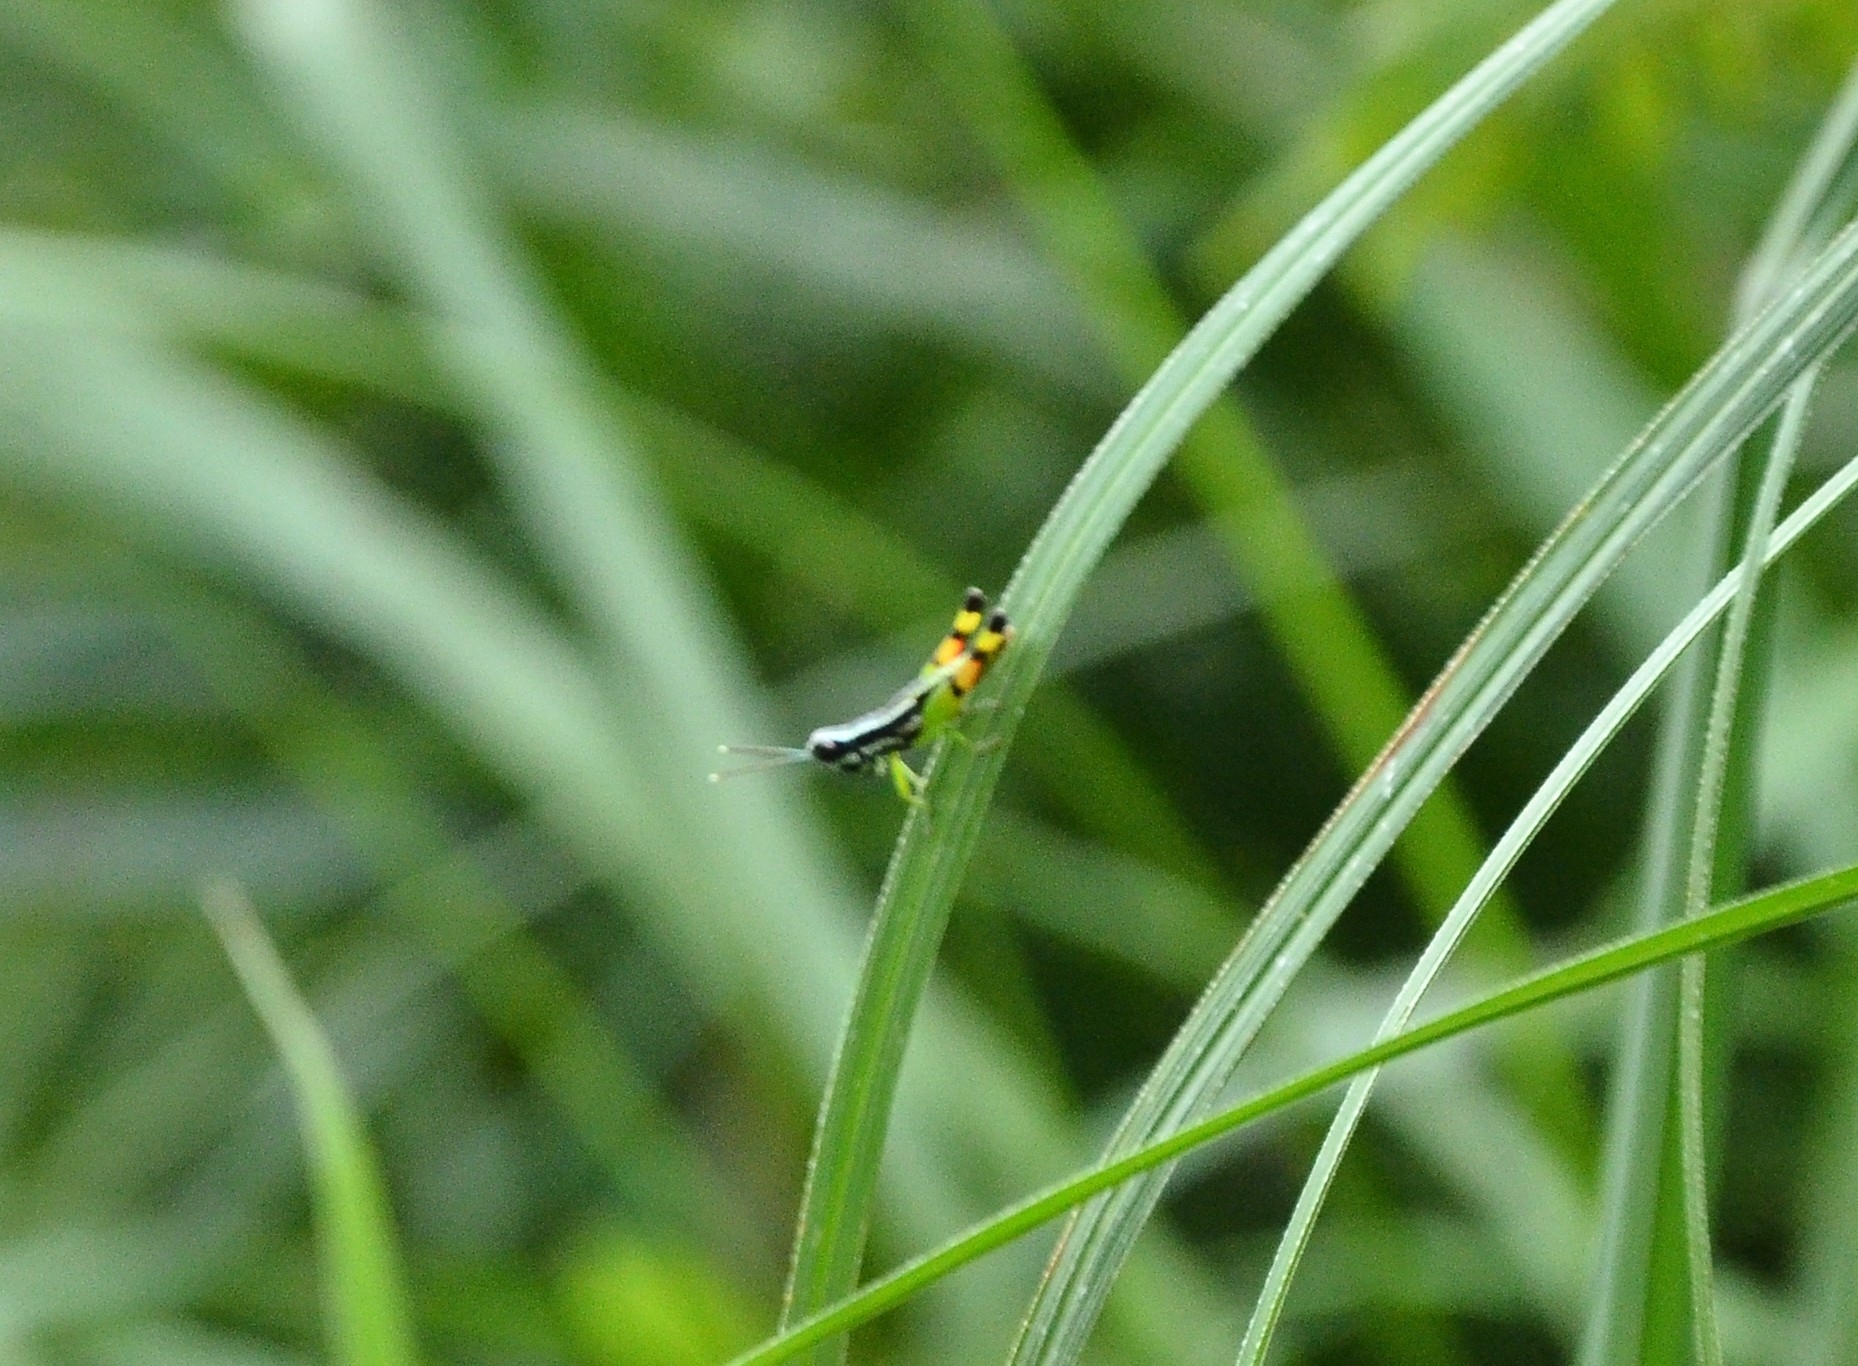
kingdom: Animalia
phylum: Arthropoda
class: Insecta
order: Orthoptera
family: Acrididae
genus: Chitaura
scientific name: Chitaura indica
